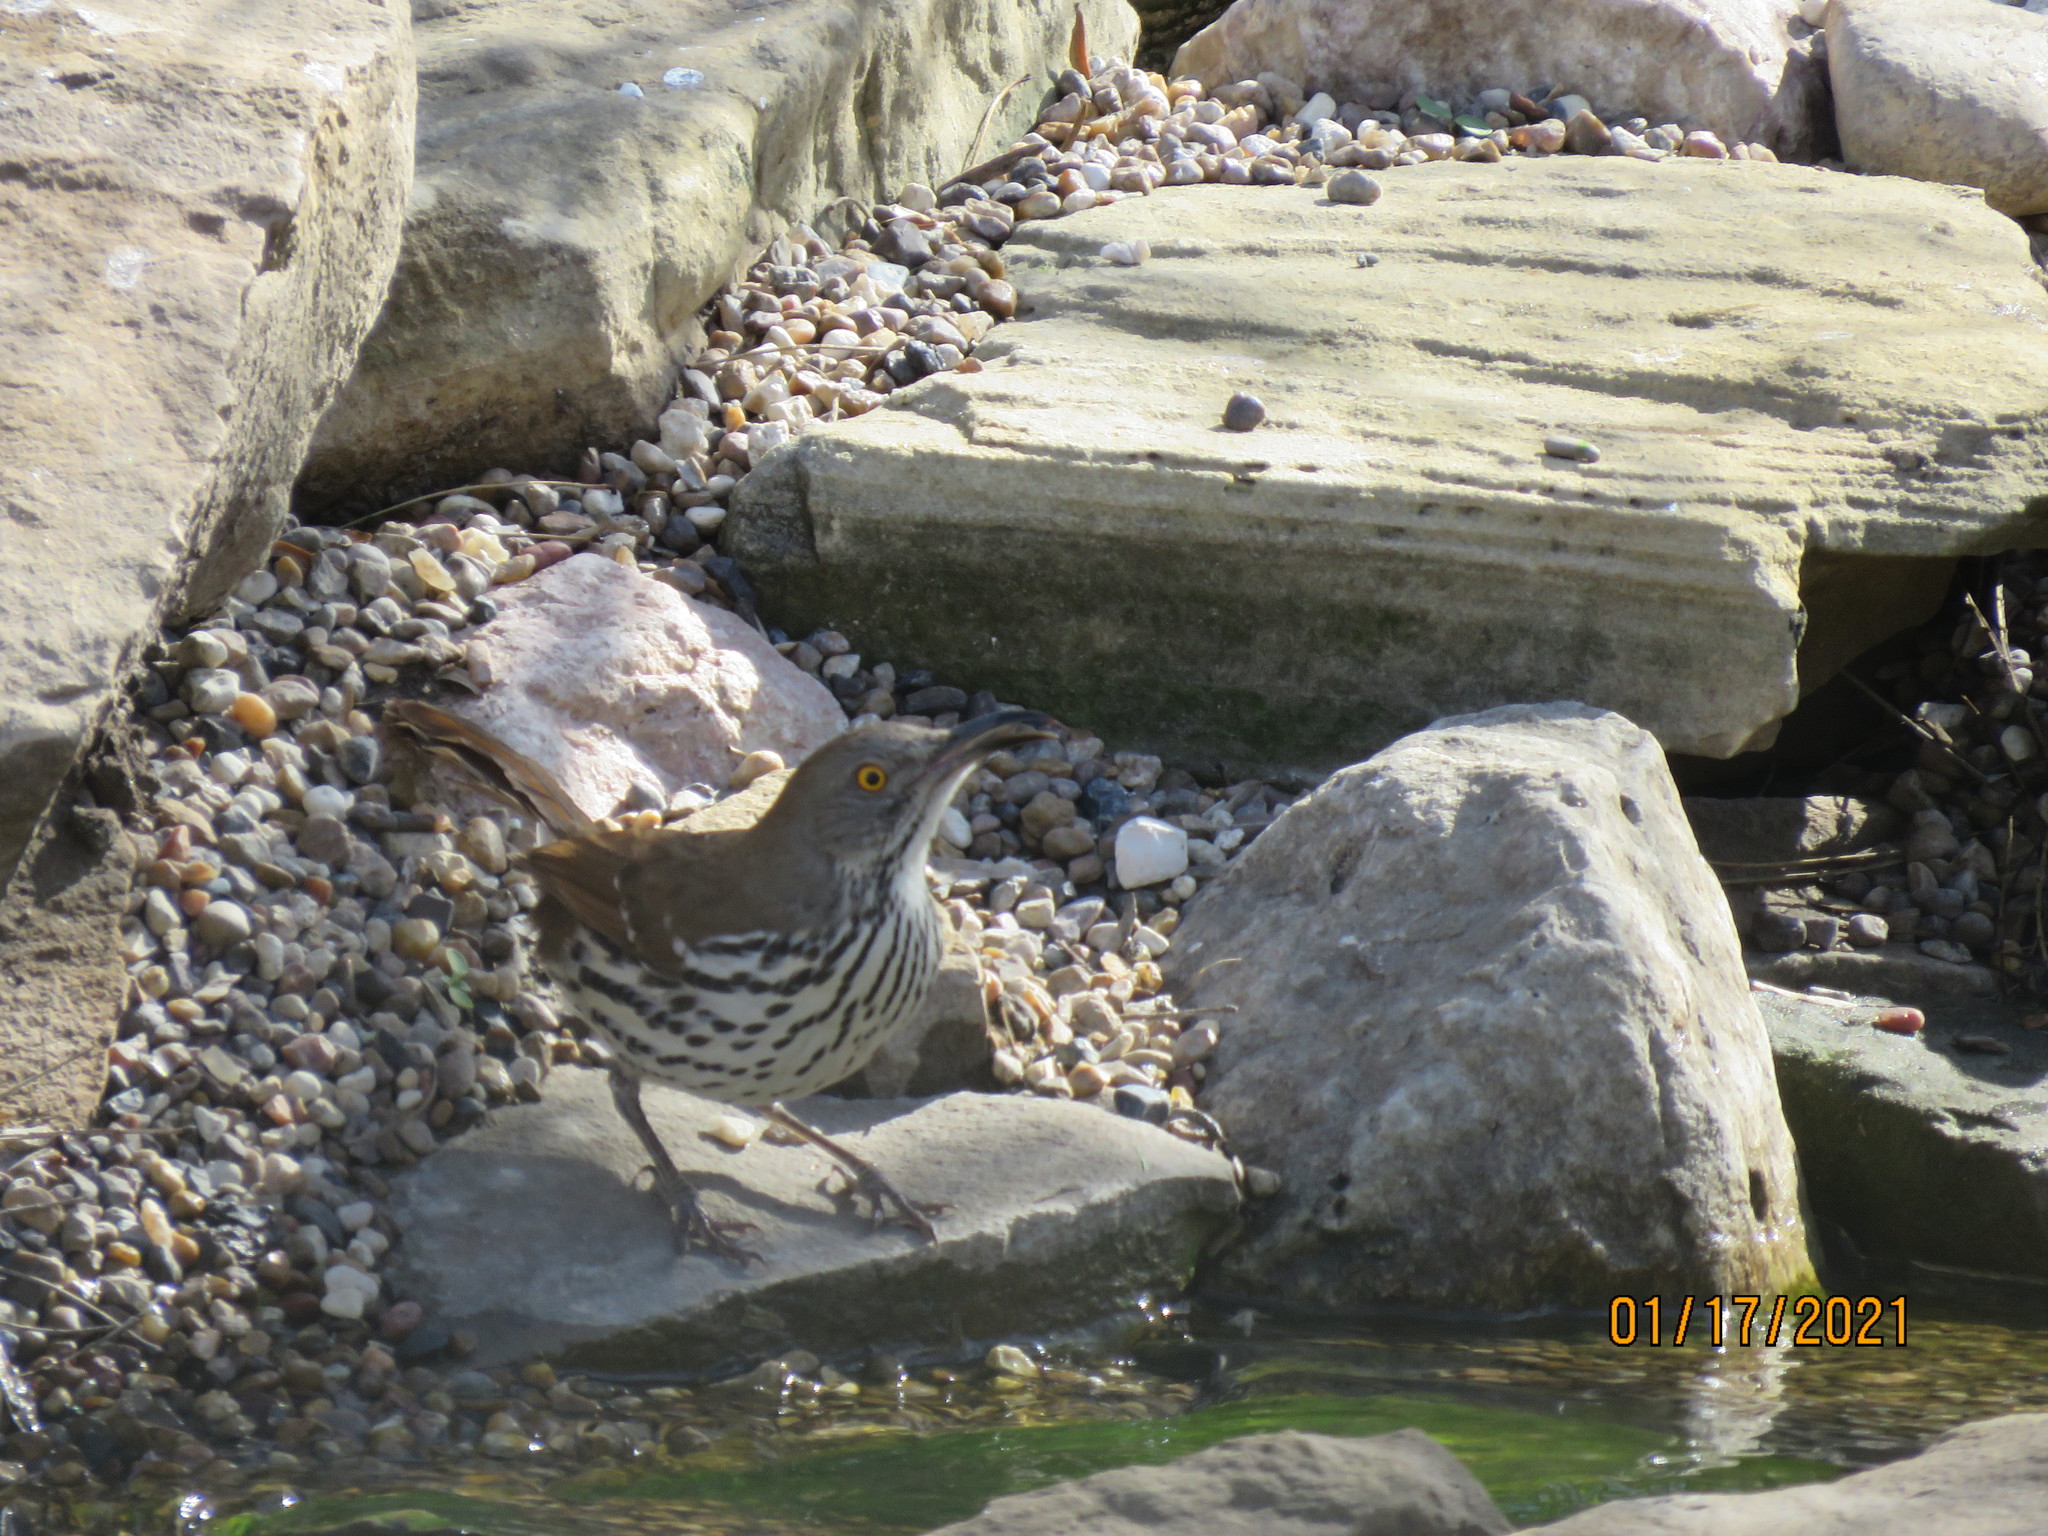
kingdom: Animalia
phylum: Chordata
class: Aves
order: Passeriformes
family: Mimidae
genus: Toxostoma
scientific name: Toxostoma longirostre
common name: Long-billed thrasher
